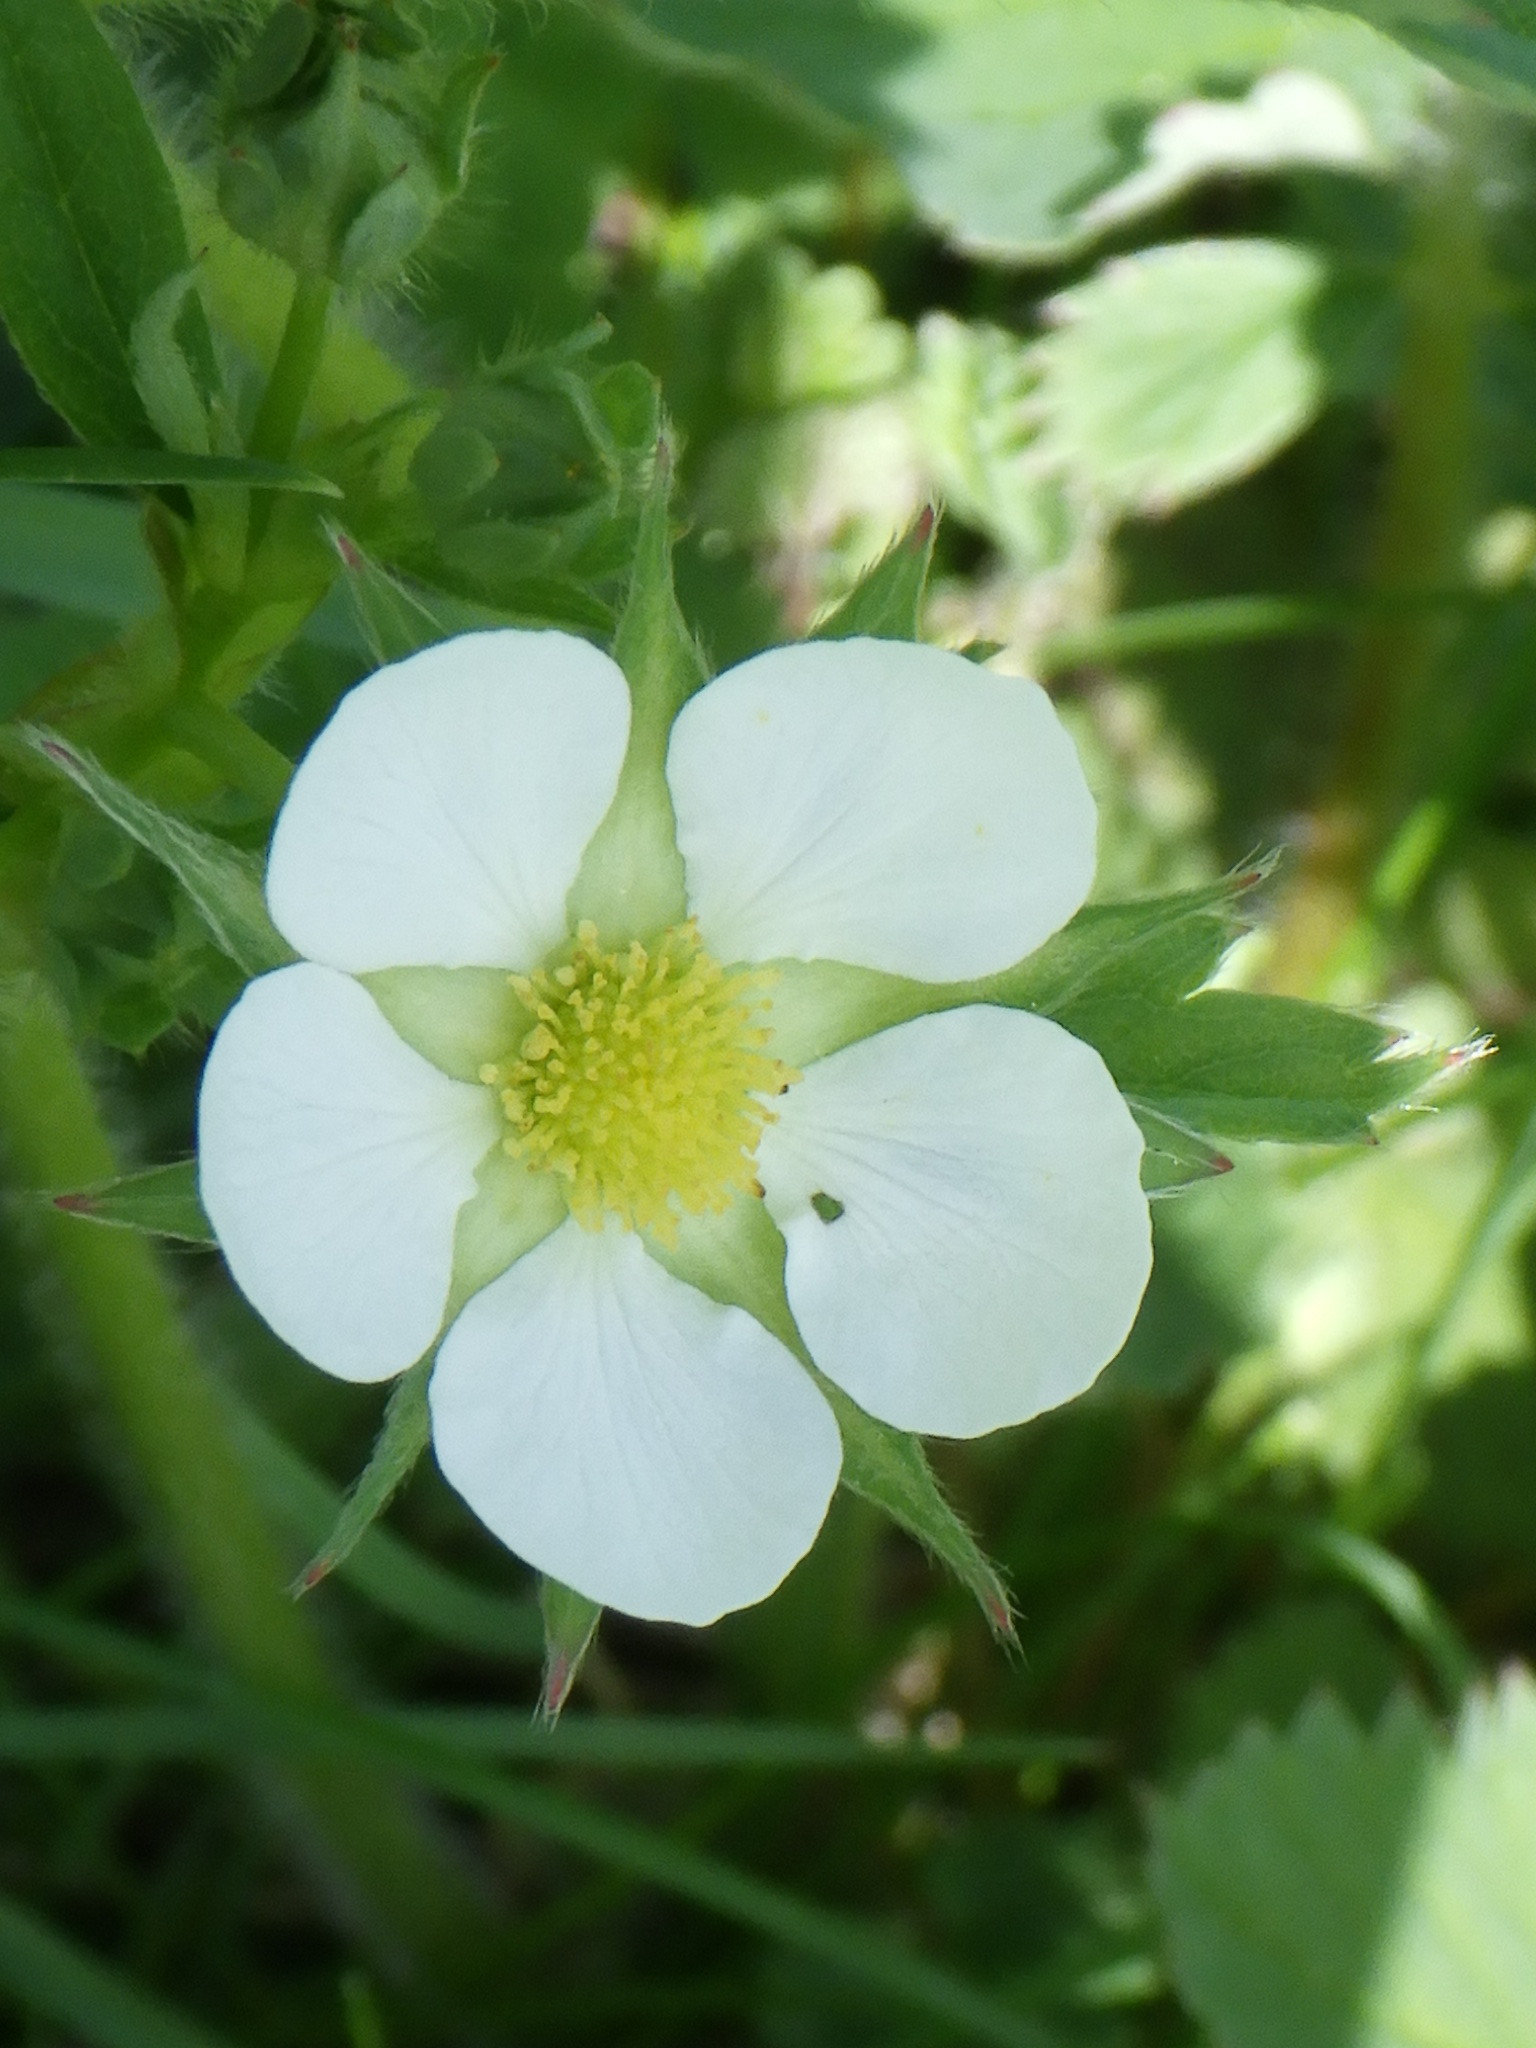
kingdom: Plantae
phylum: Tracheophyta
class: Magnoliopsida
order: Rosales
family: Rosaceae
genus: Fragaria
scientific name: Fragaria virginiana
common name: Thickleaved wild strawberry
